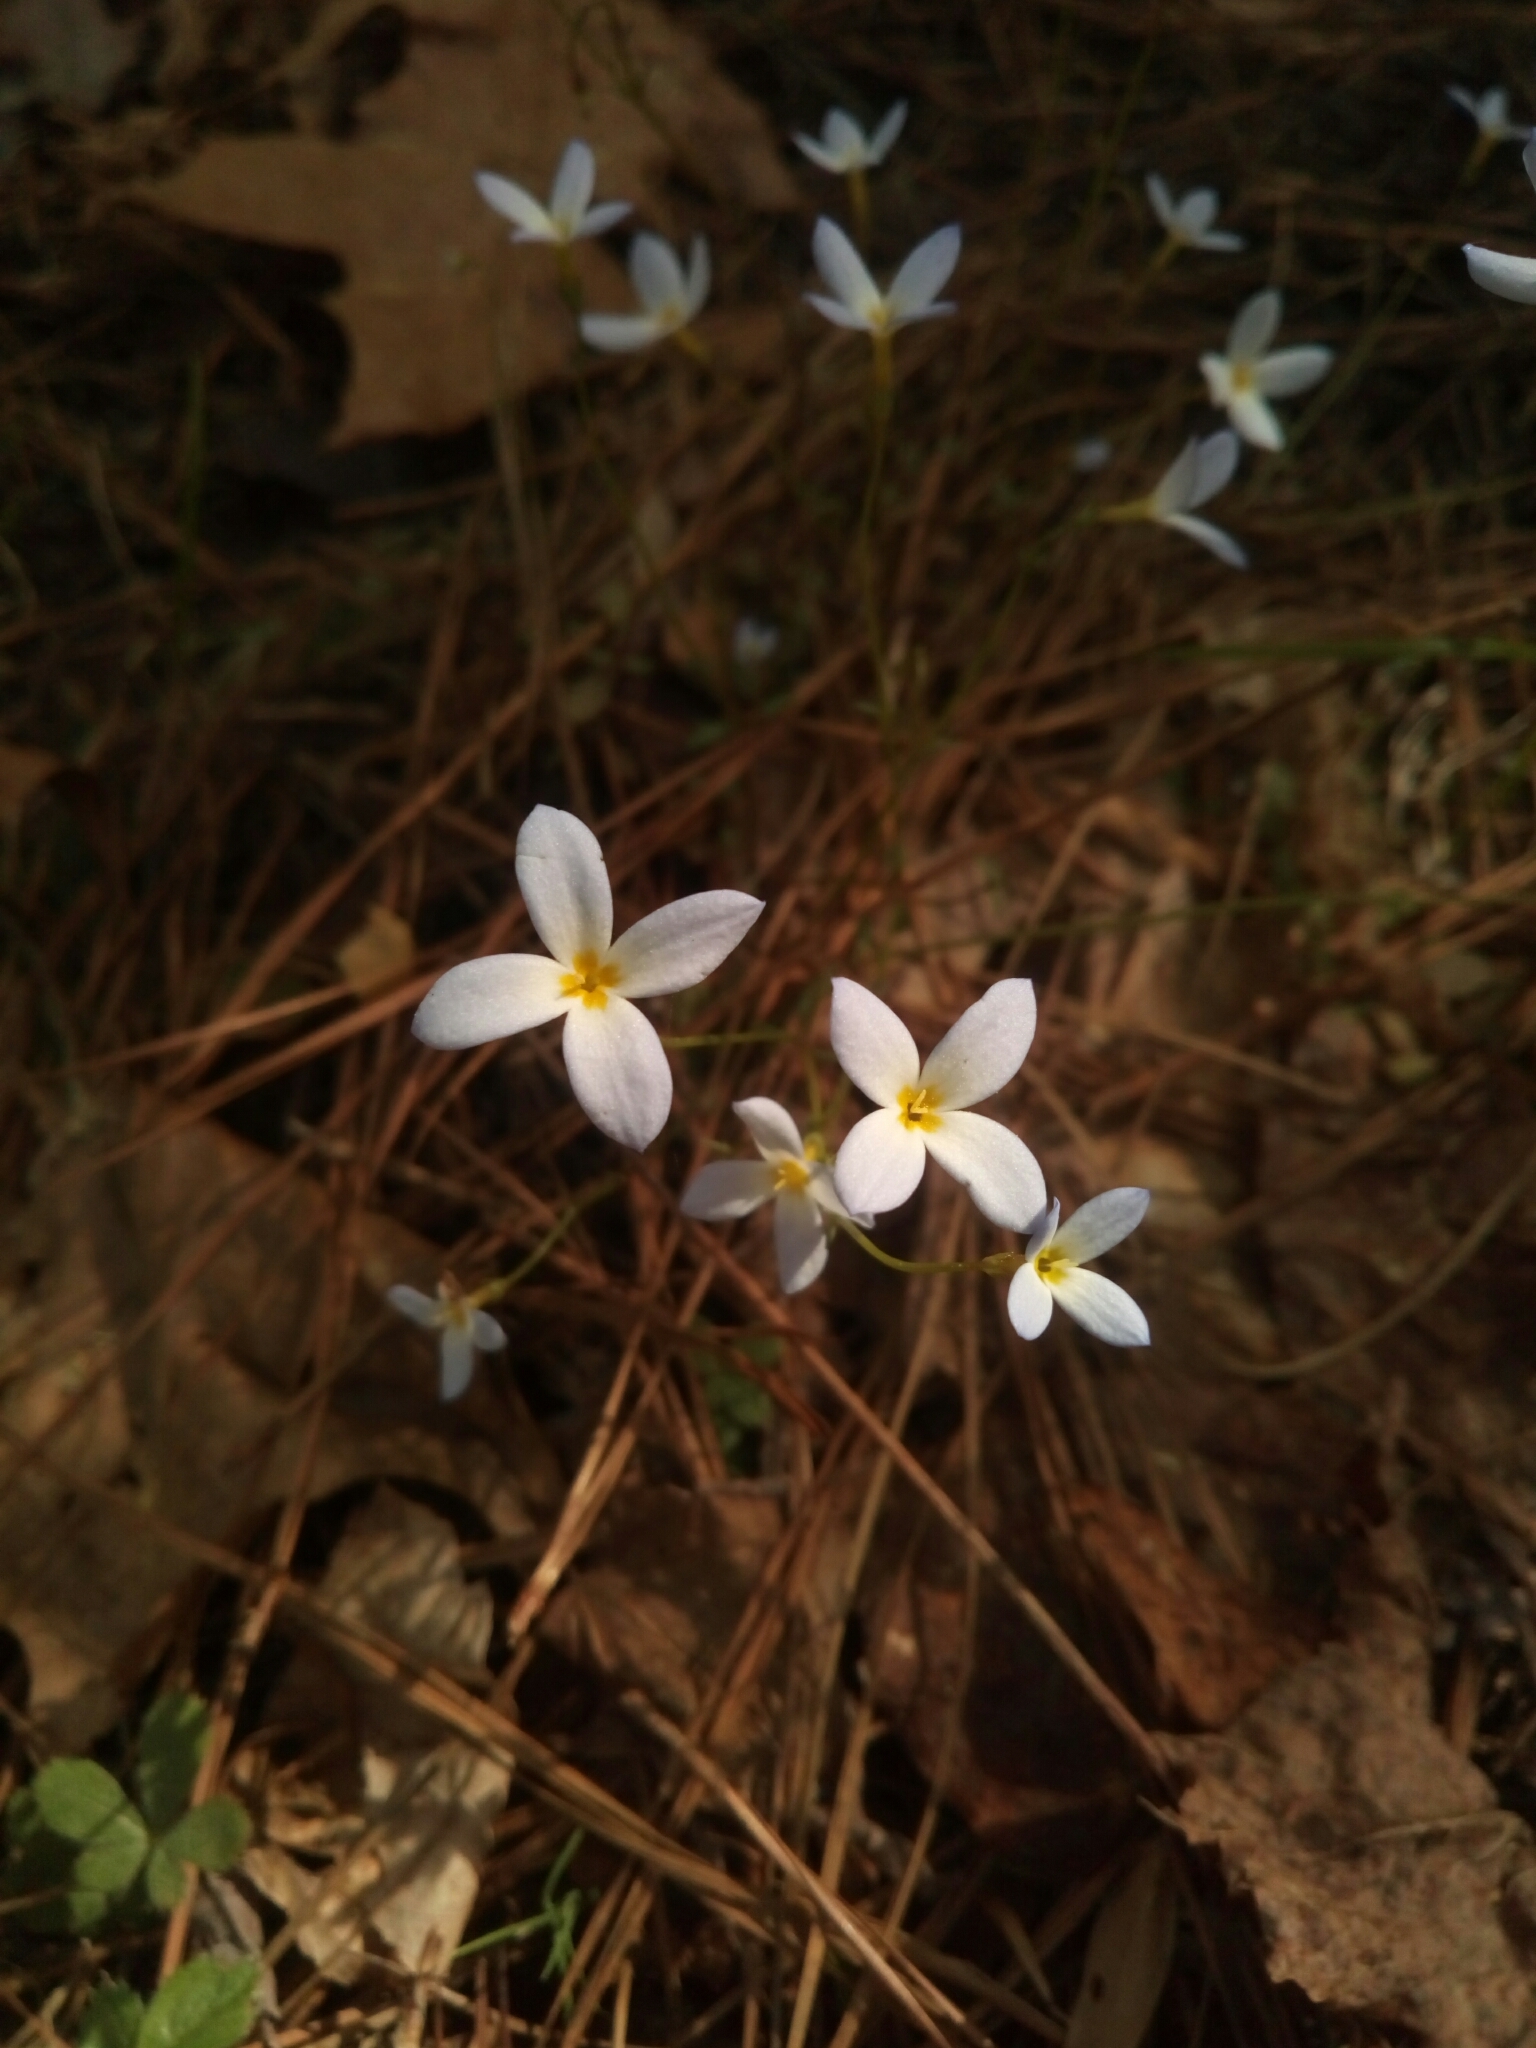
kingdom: Plantae
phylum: Tracheophyta
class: Magnoliopsida
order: Gentianales
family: Rubiaceae
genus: Houstonia
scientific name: Houstonia caerulea
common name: Bluets
